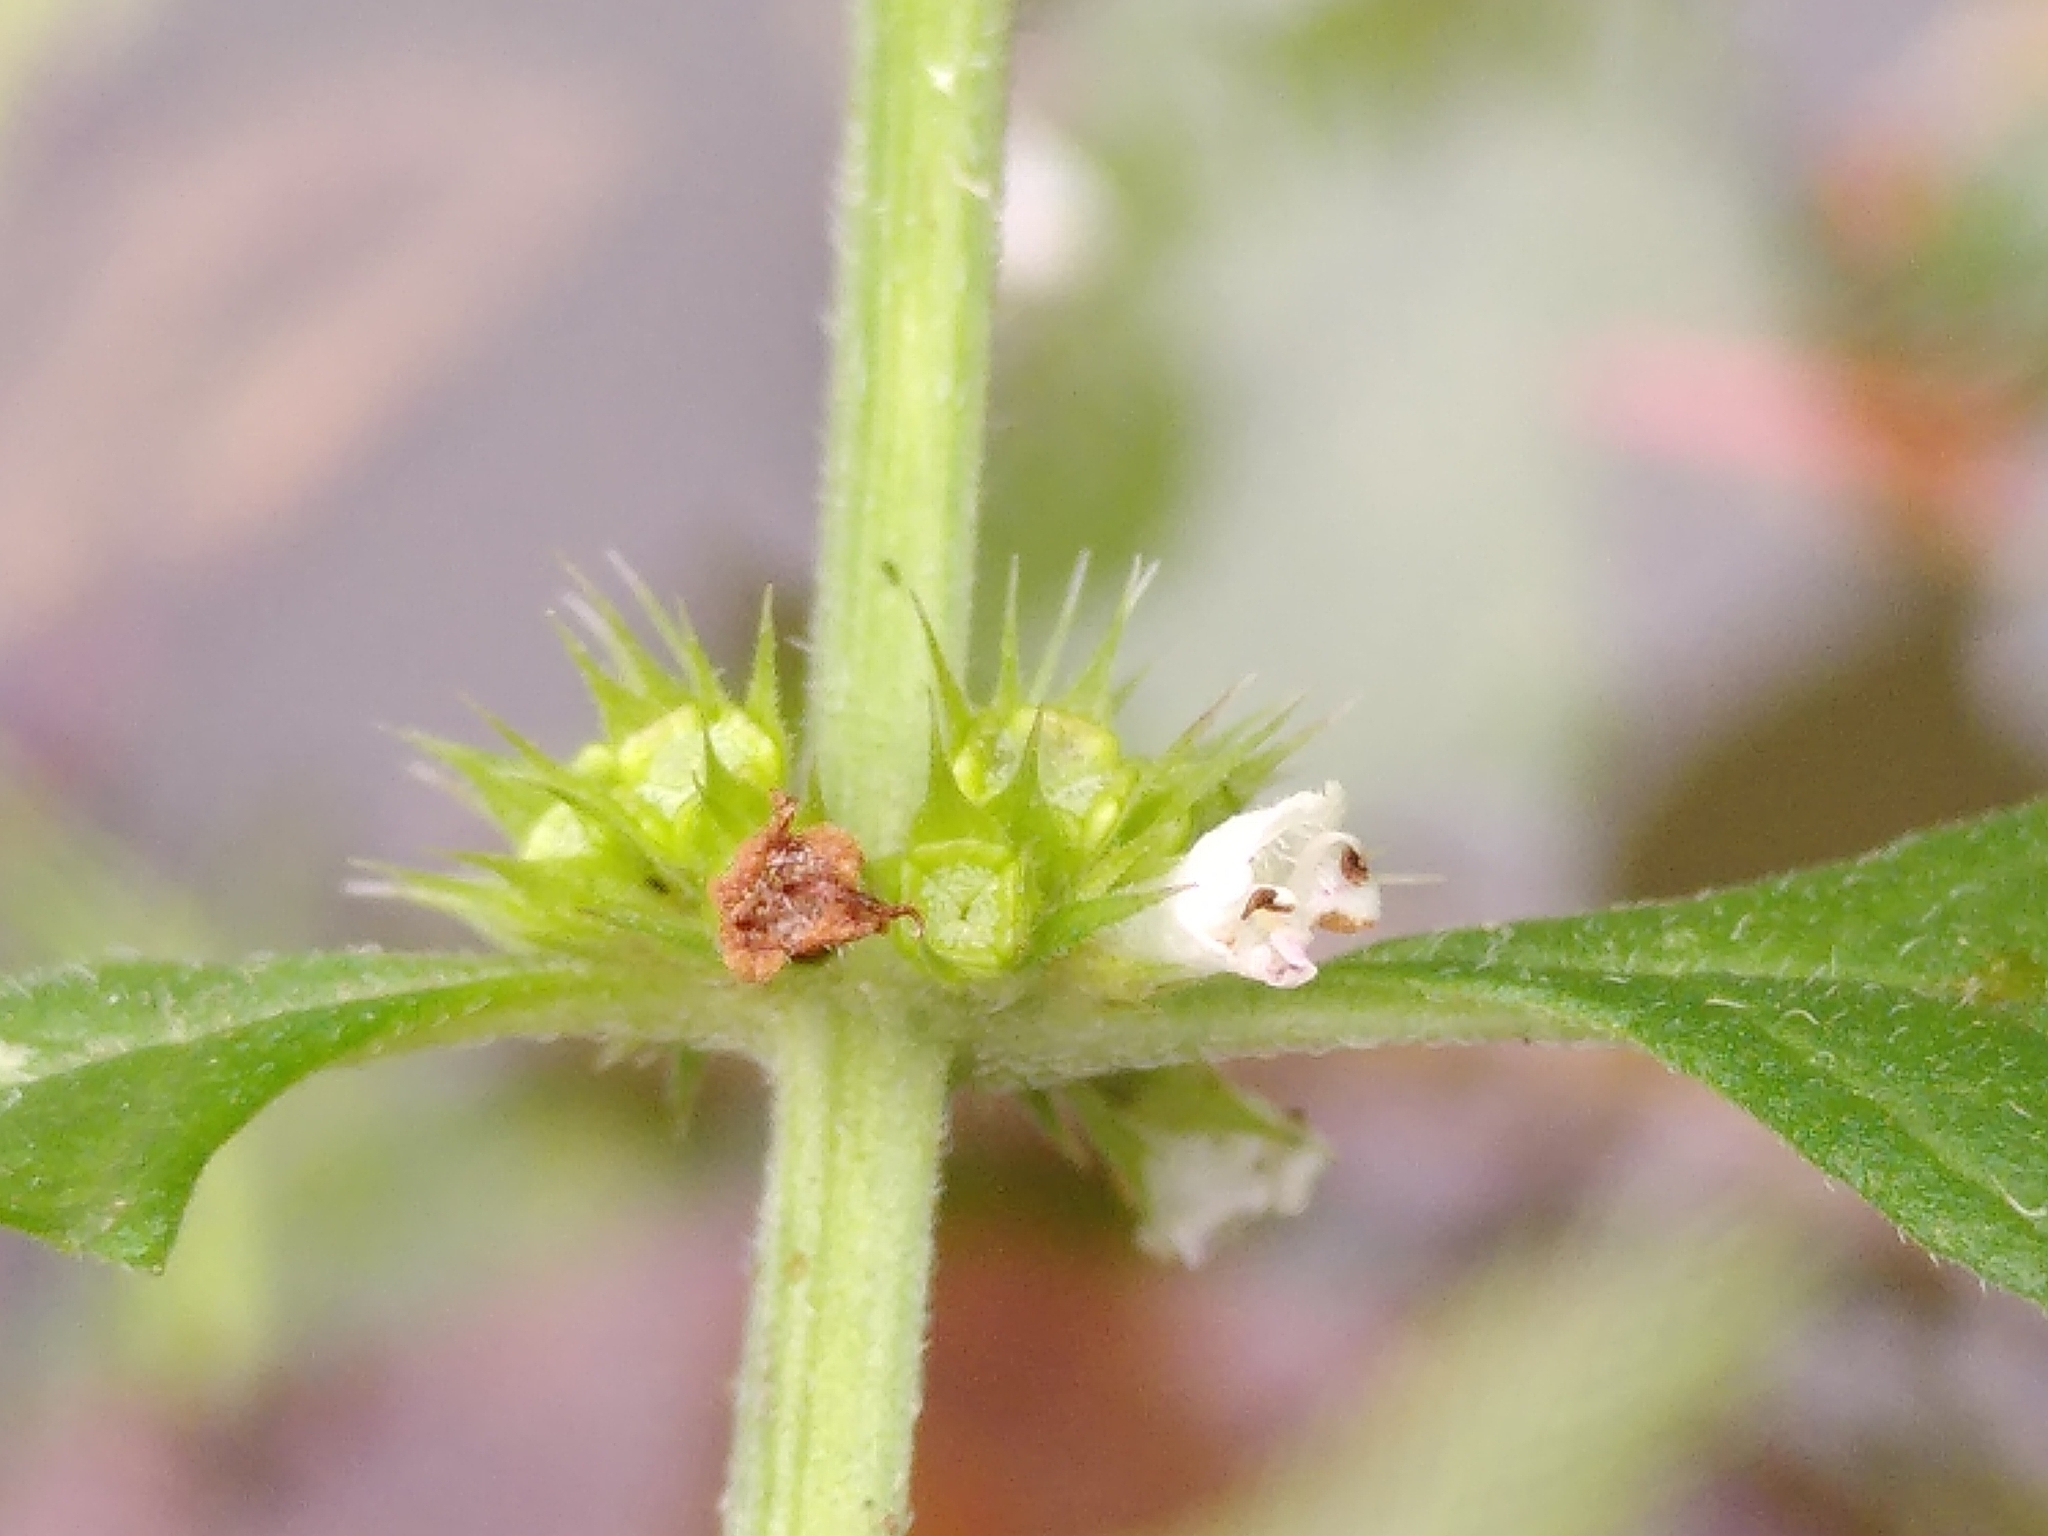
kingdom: Plantae
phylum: Tracheophyta
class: Magnoliopsida
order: Lamiales
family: Lamiaceae
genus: Lycopus
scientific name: Lycopus europaeus
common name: European bugleweed
